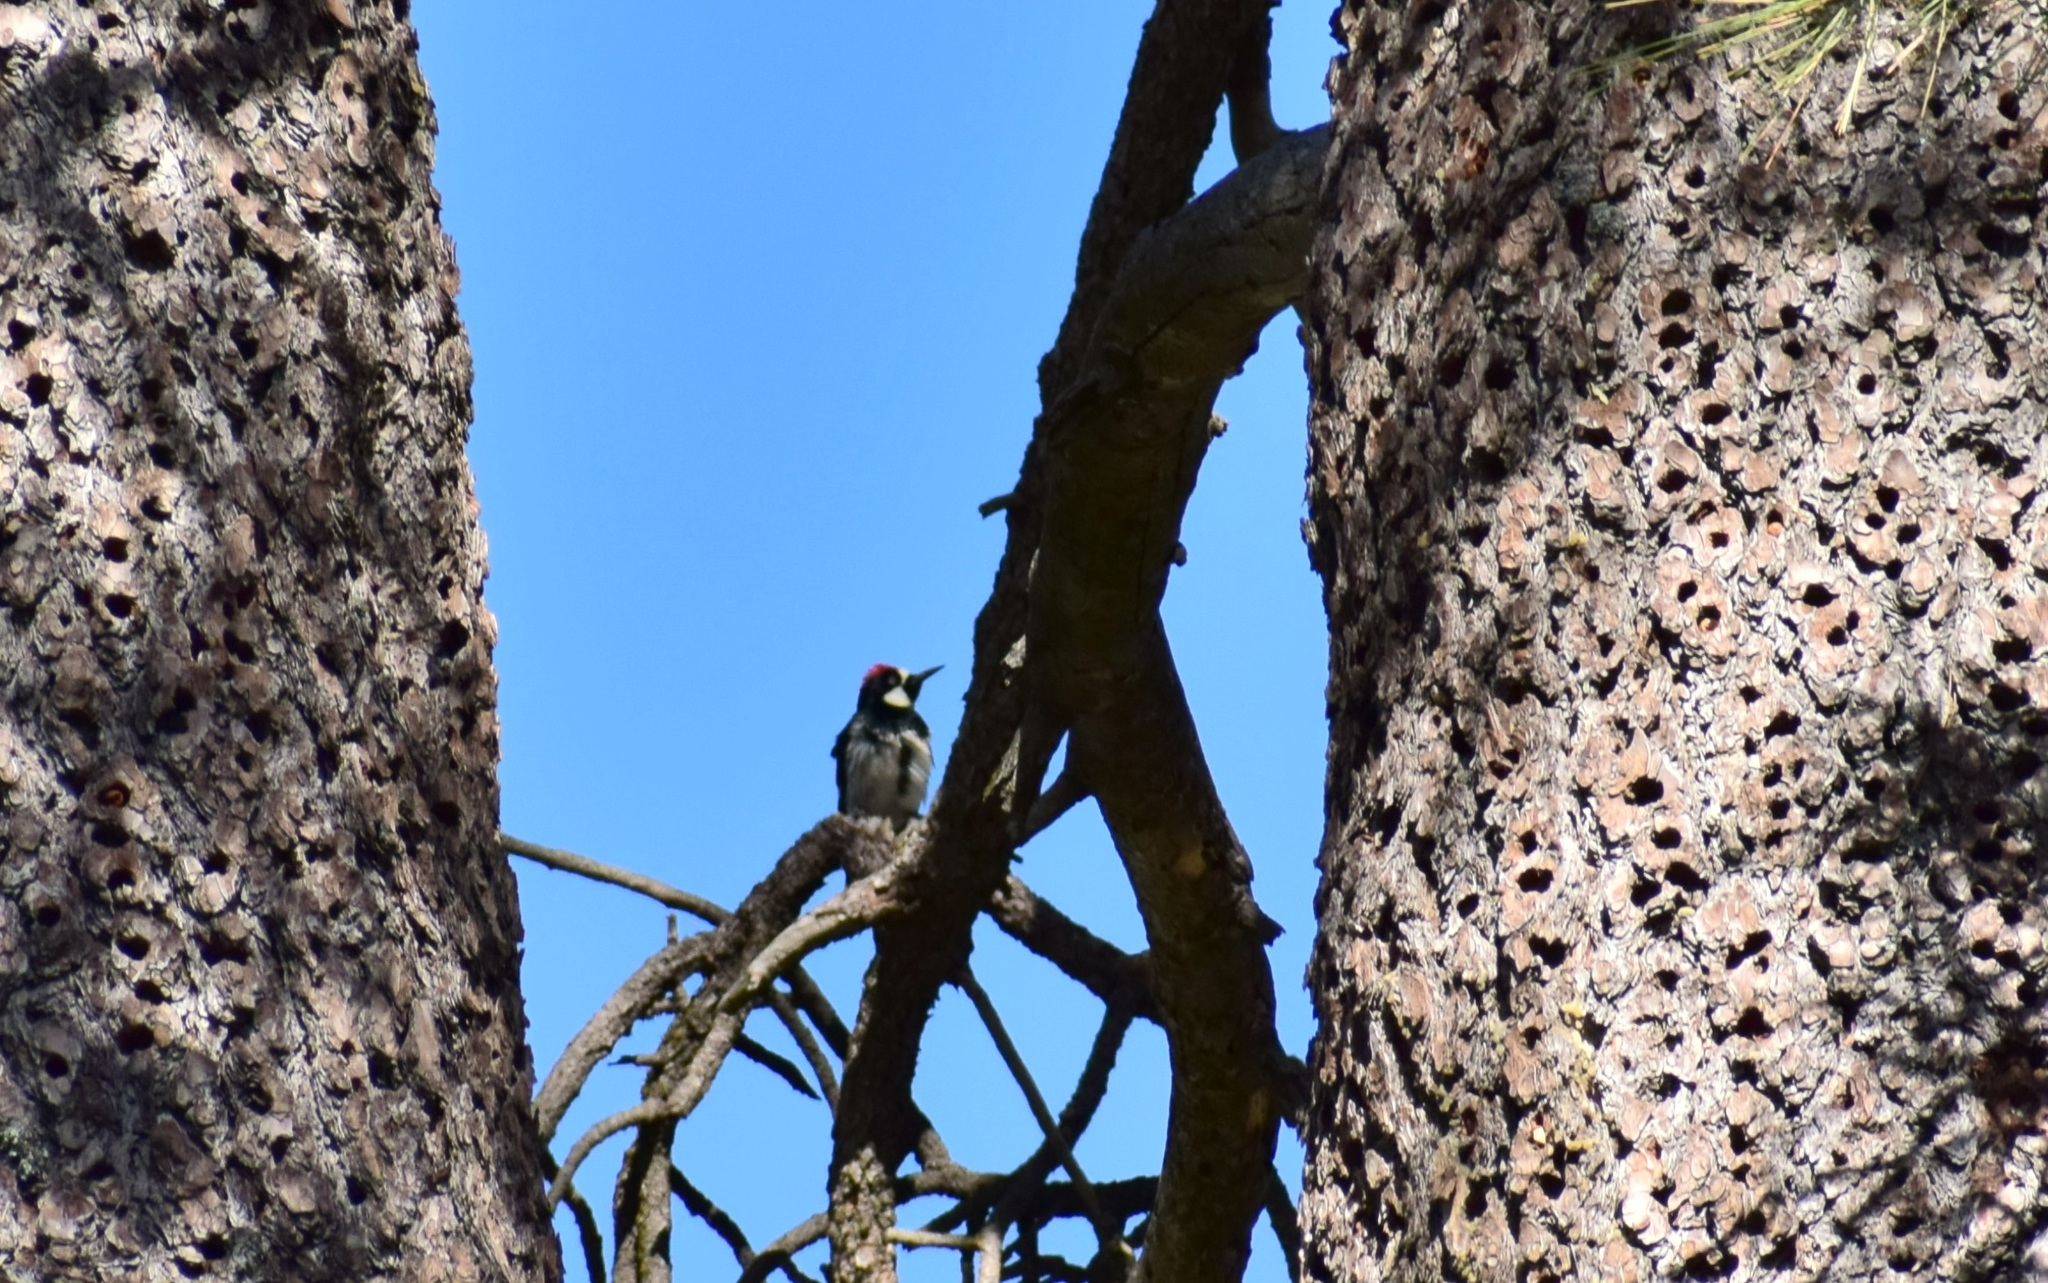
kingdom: Animalia
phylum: Chordata
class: Aves
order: Piciformes
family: Picidae
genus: Melanerpes
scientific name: Melanerpes formicivorus
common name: Acorn woodpecker
